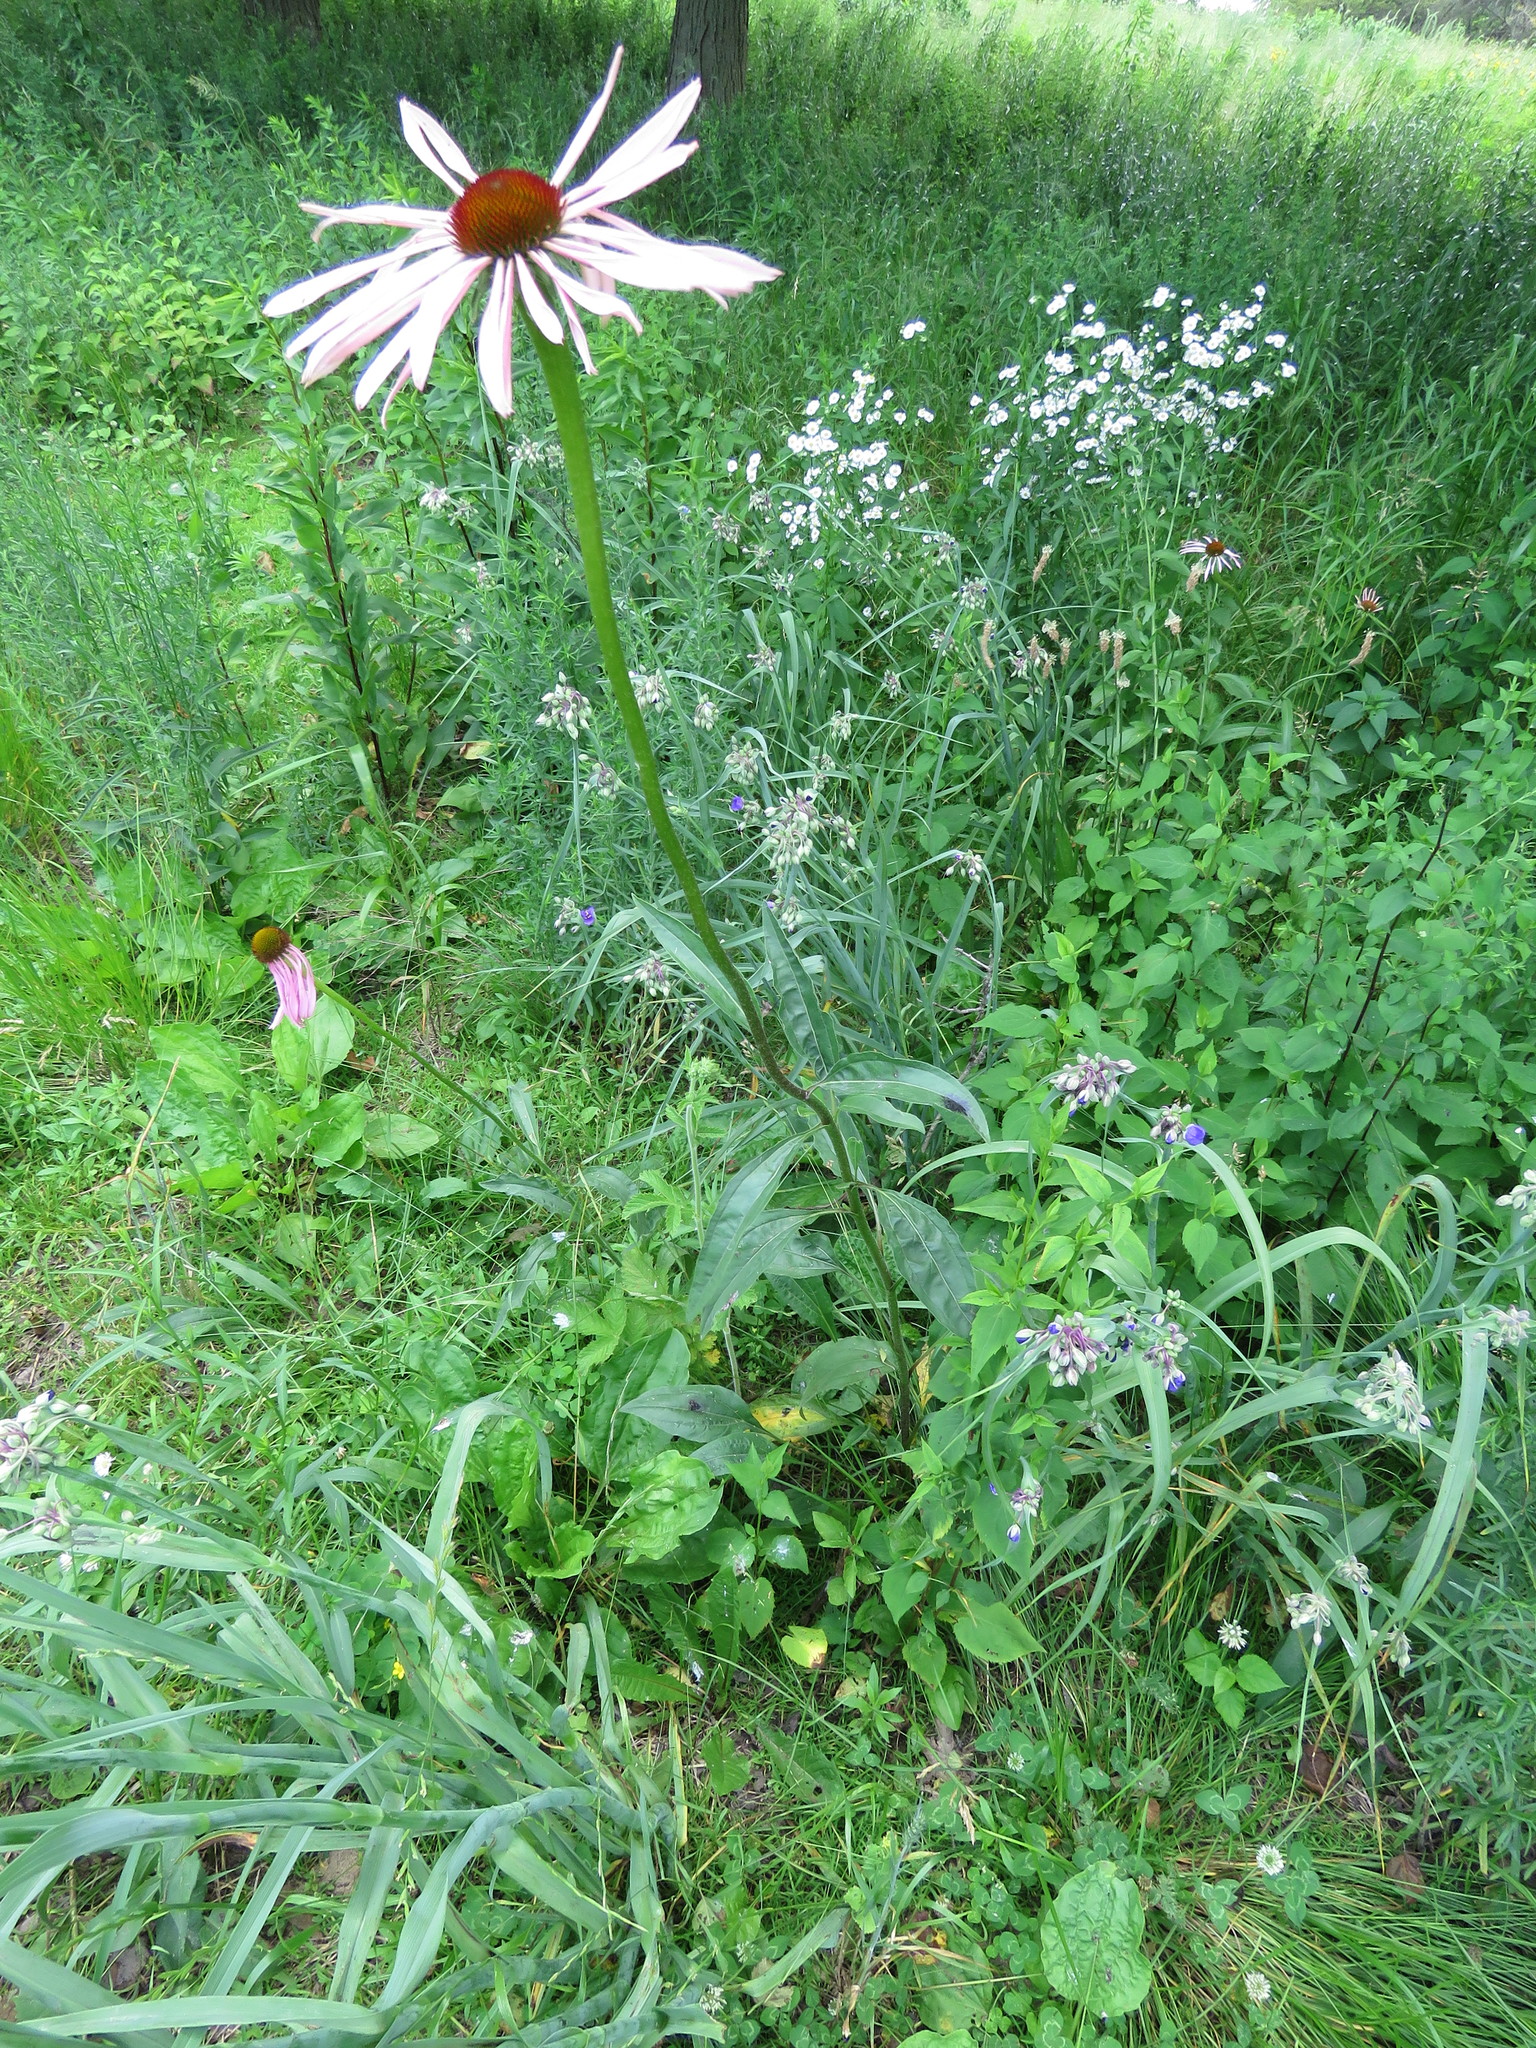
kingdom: Plantae
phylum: Tracheophyta
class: Magnoliopsida
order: Asterales
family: Asteraceae
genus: Echinacea
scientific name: Echinacea pallida
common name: Pale echinacea
